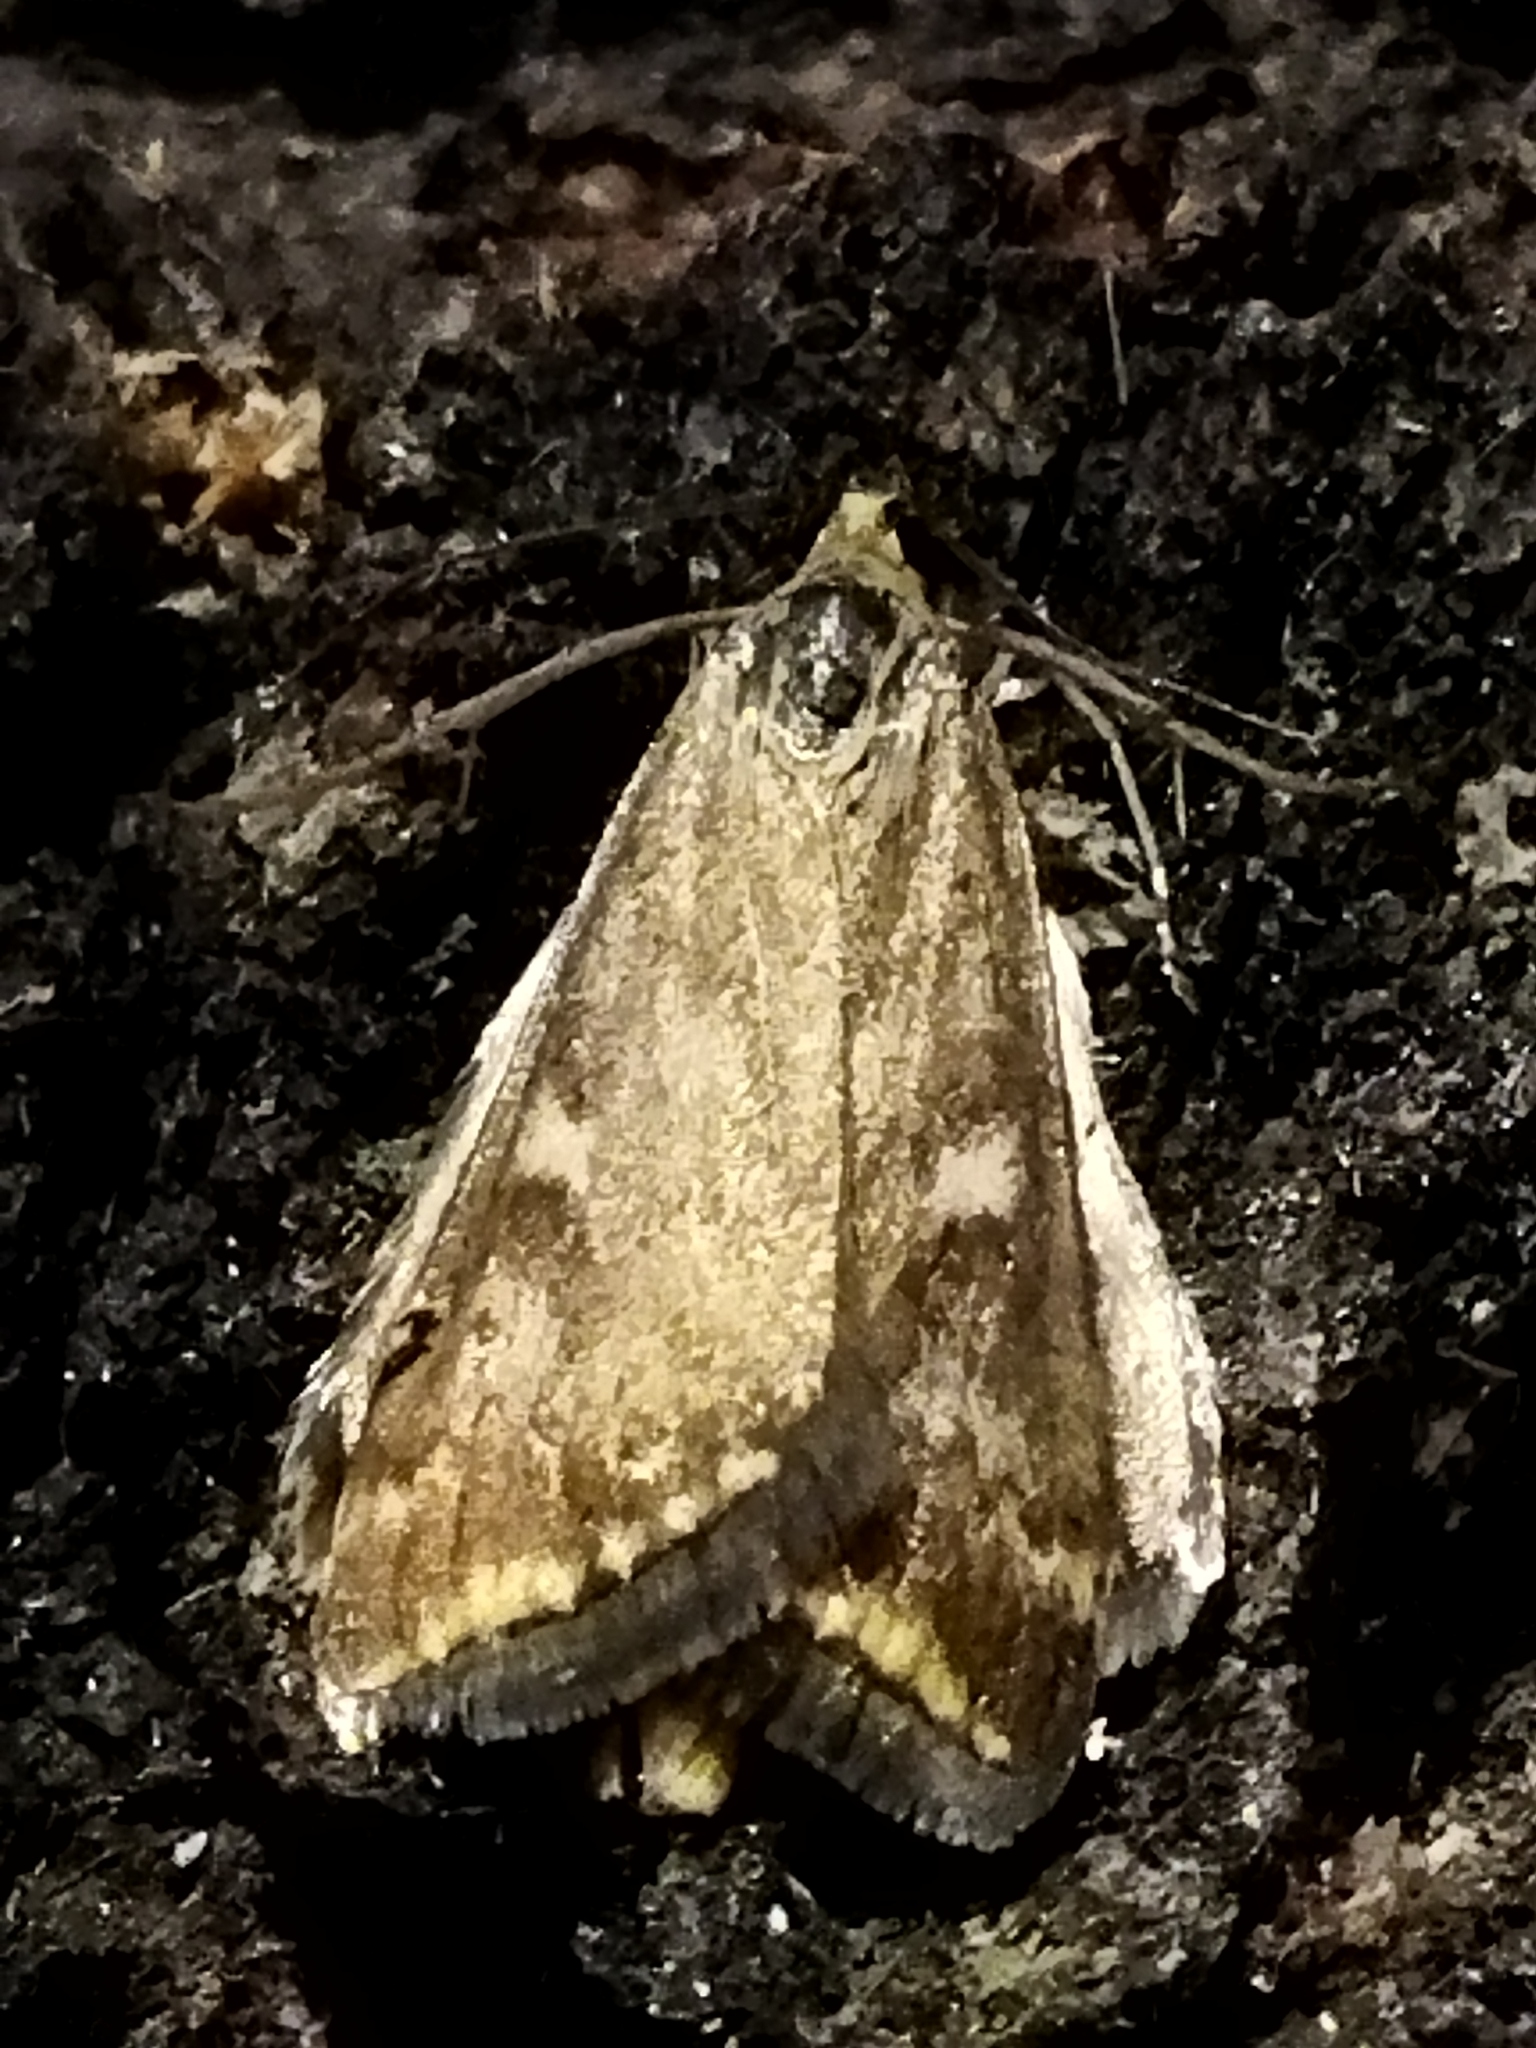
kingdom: Animalia
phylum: Arthropoda
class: Insecta
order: Lepidoptera
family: Crambidae
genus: Loxostege
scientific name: Loxostege sticticalis
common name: Crambid moth
